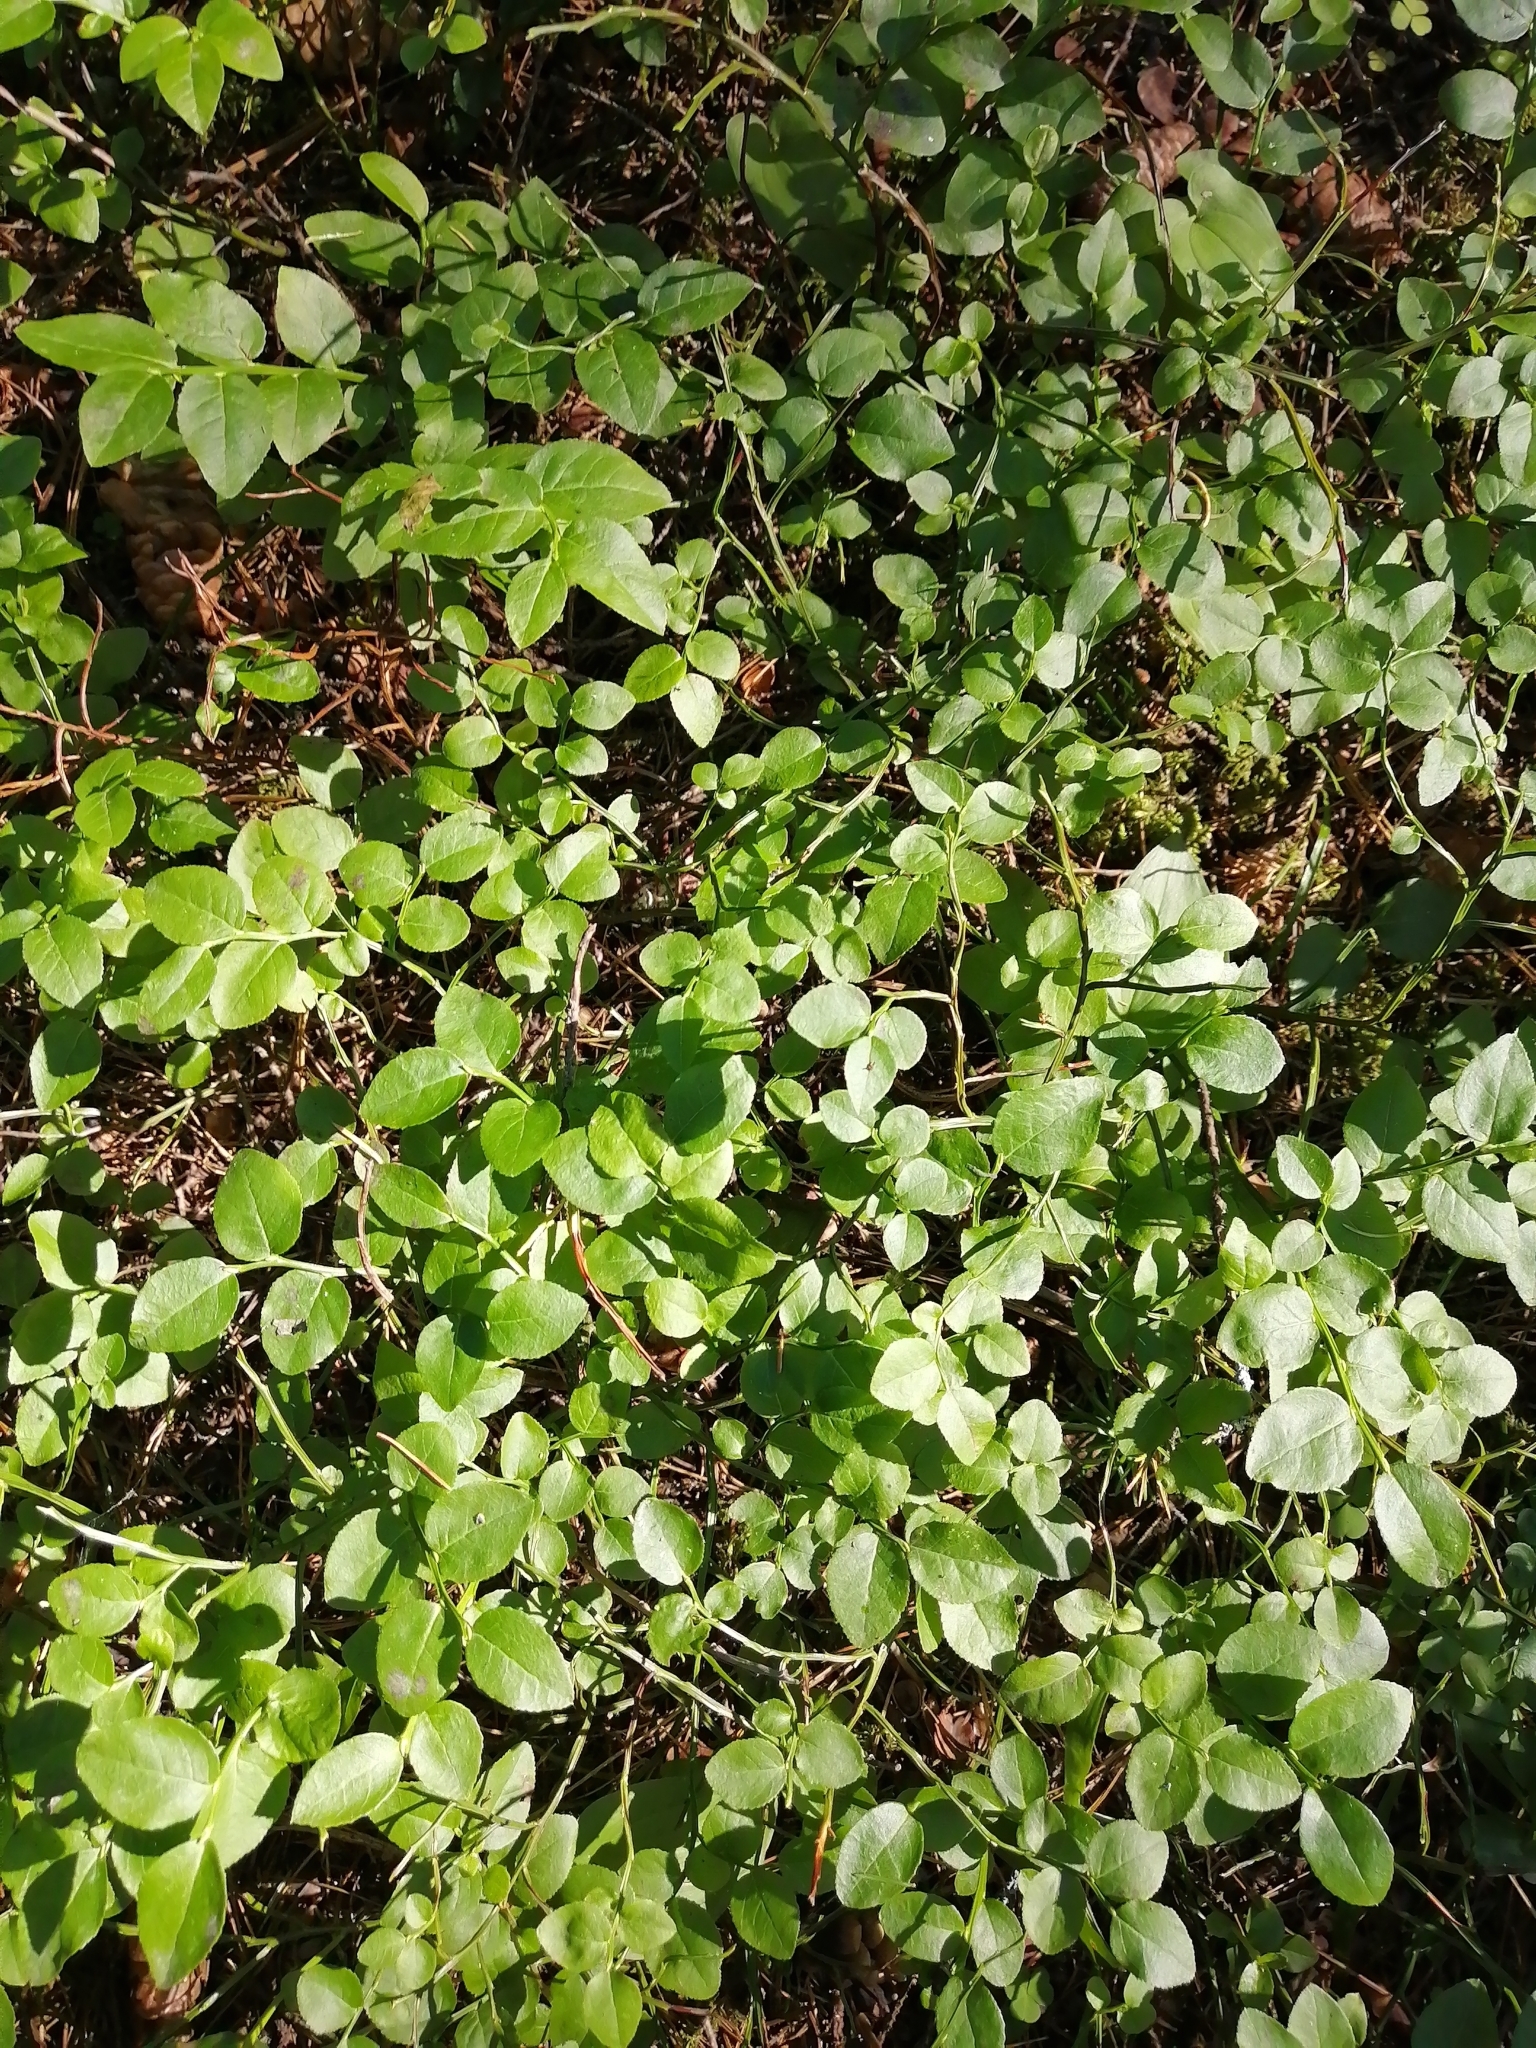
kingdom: Plantae
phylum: Tracheophyta
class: Magnoliopsida
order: Ericales
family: Ericaceae
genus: Vaccinium
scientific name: Vaccinium myrtillus
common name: Bilberry
